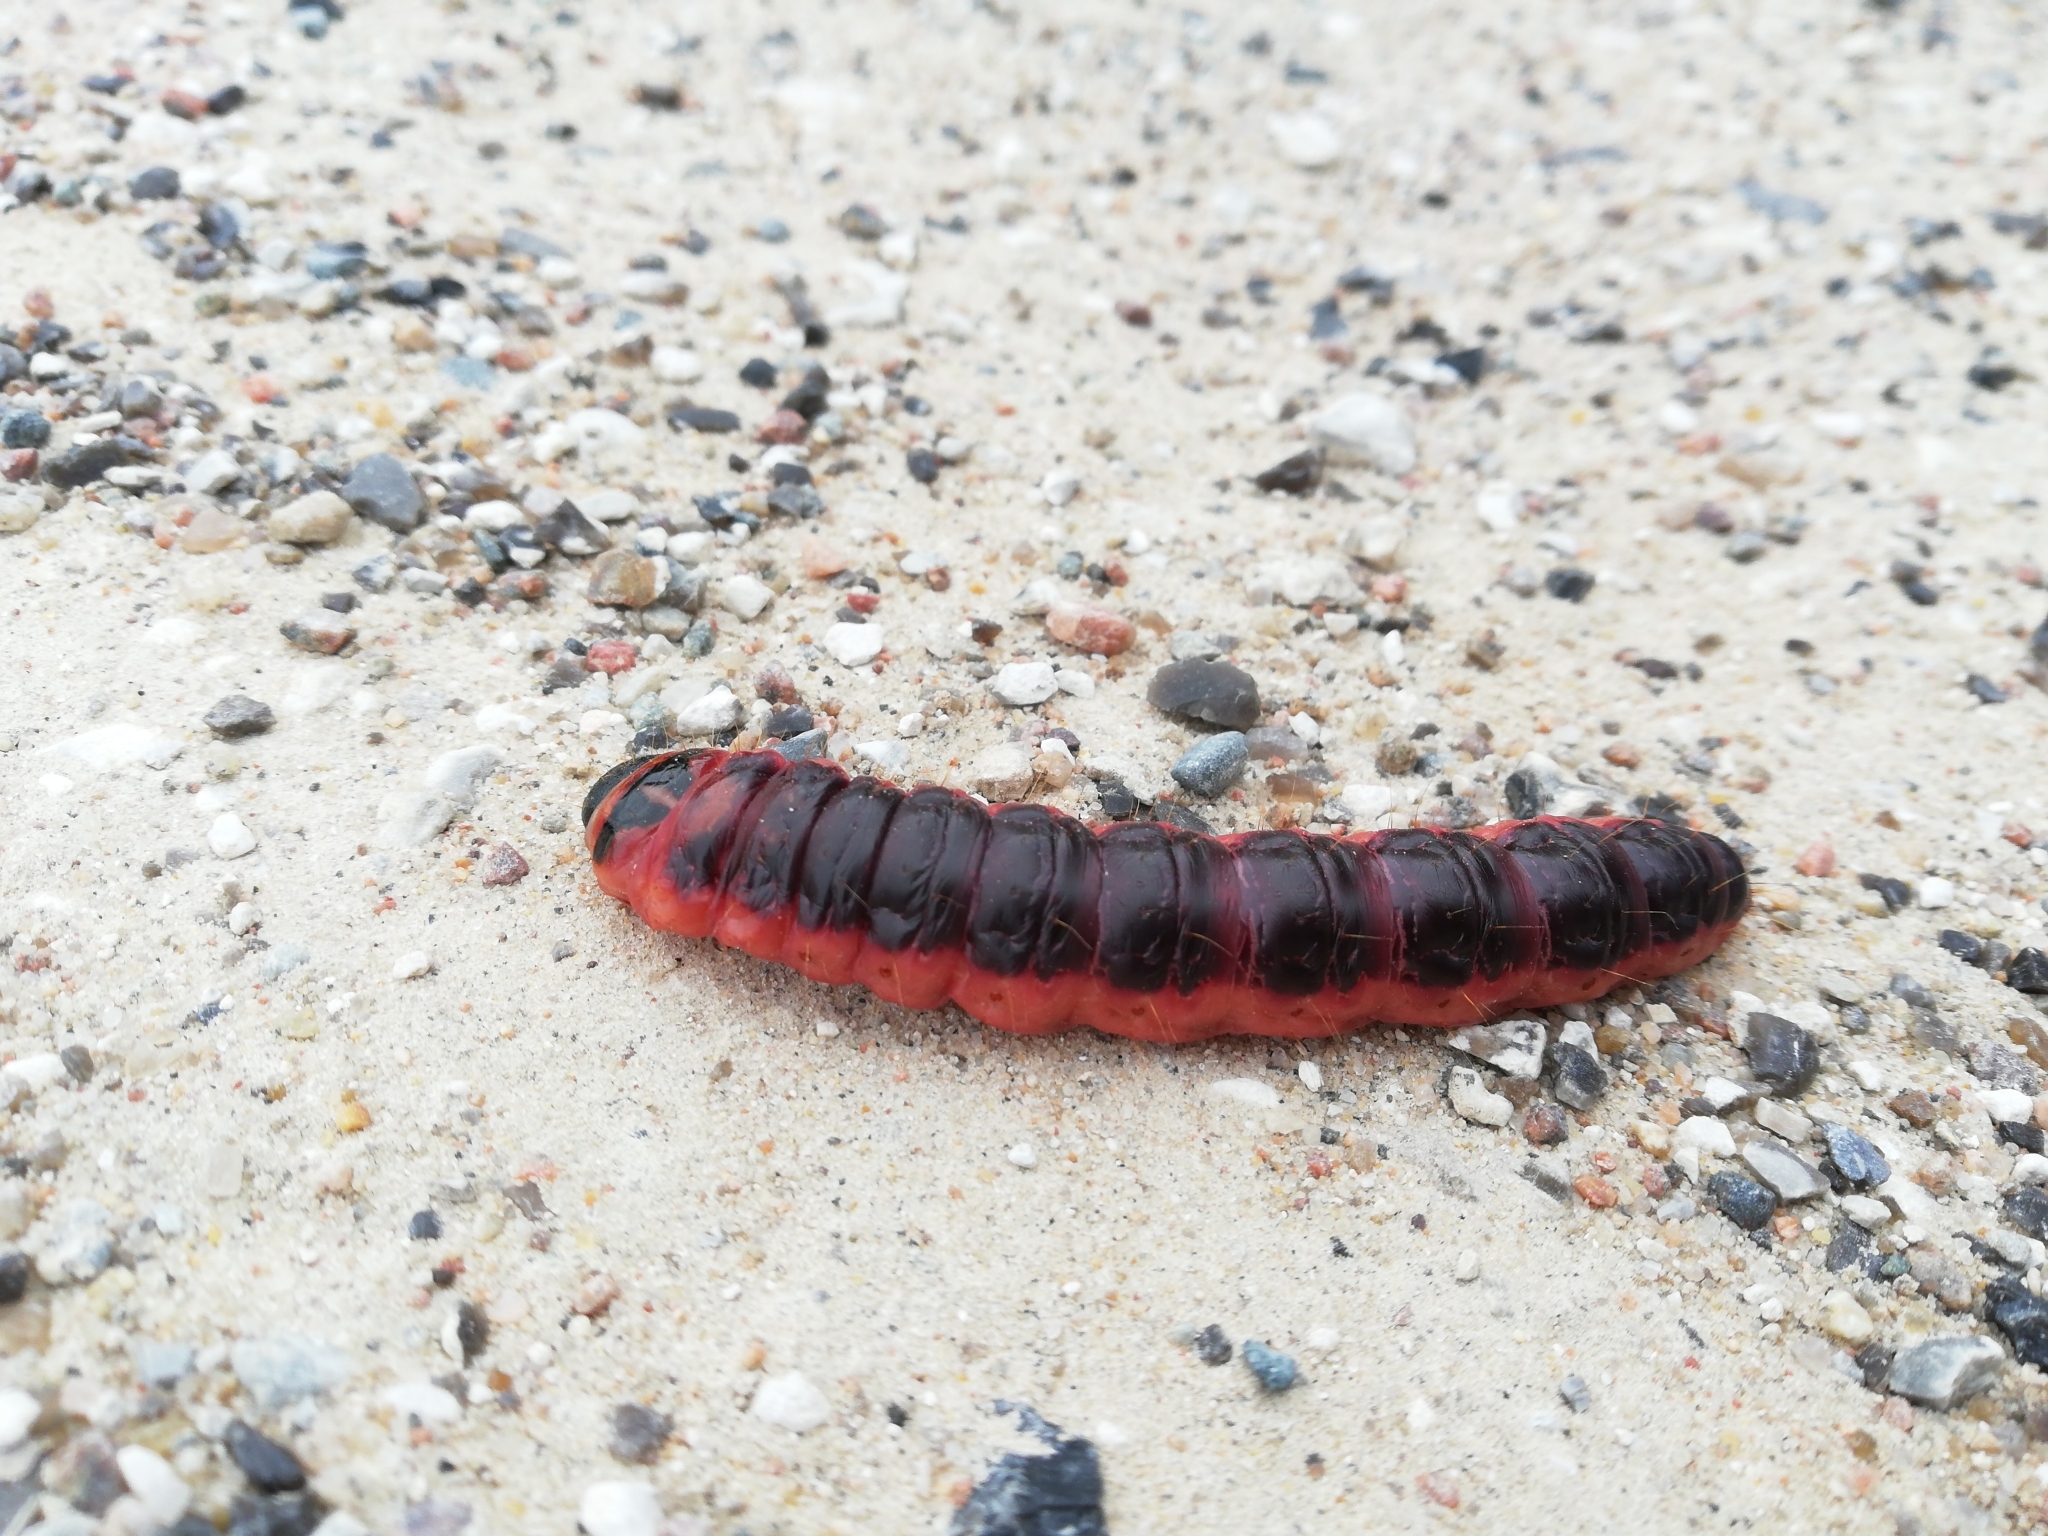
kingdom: Animalia
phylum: Arthropoda
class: Insecta
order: Lepidoptera
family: Cossidae
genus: Cossus
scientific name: Cossus cossus
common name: Goat moth
